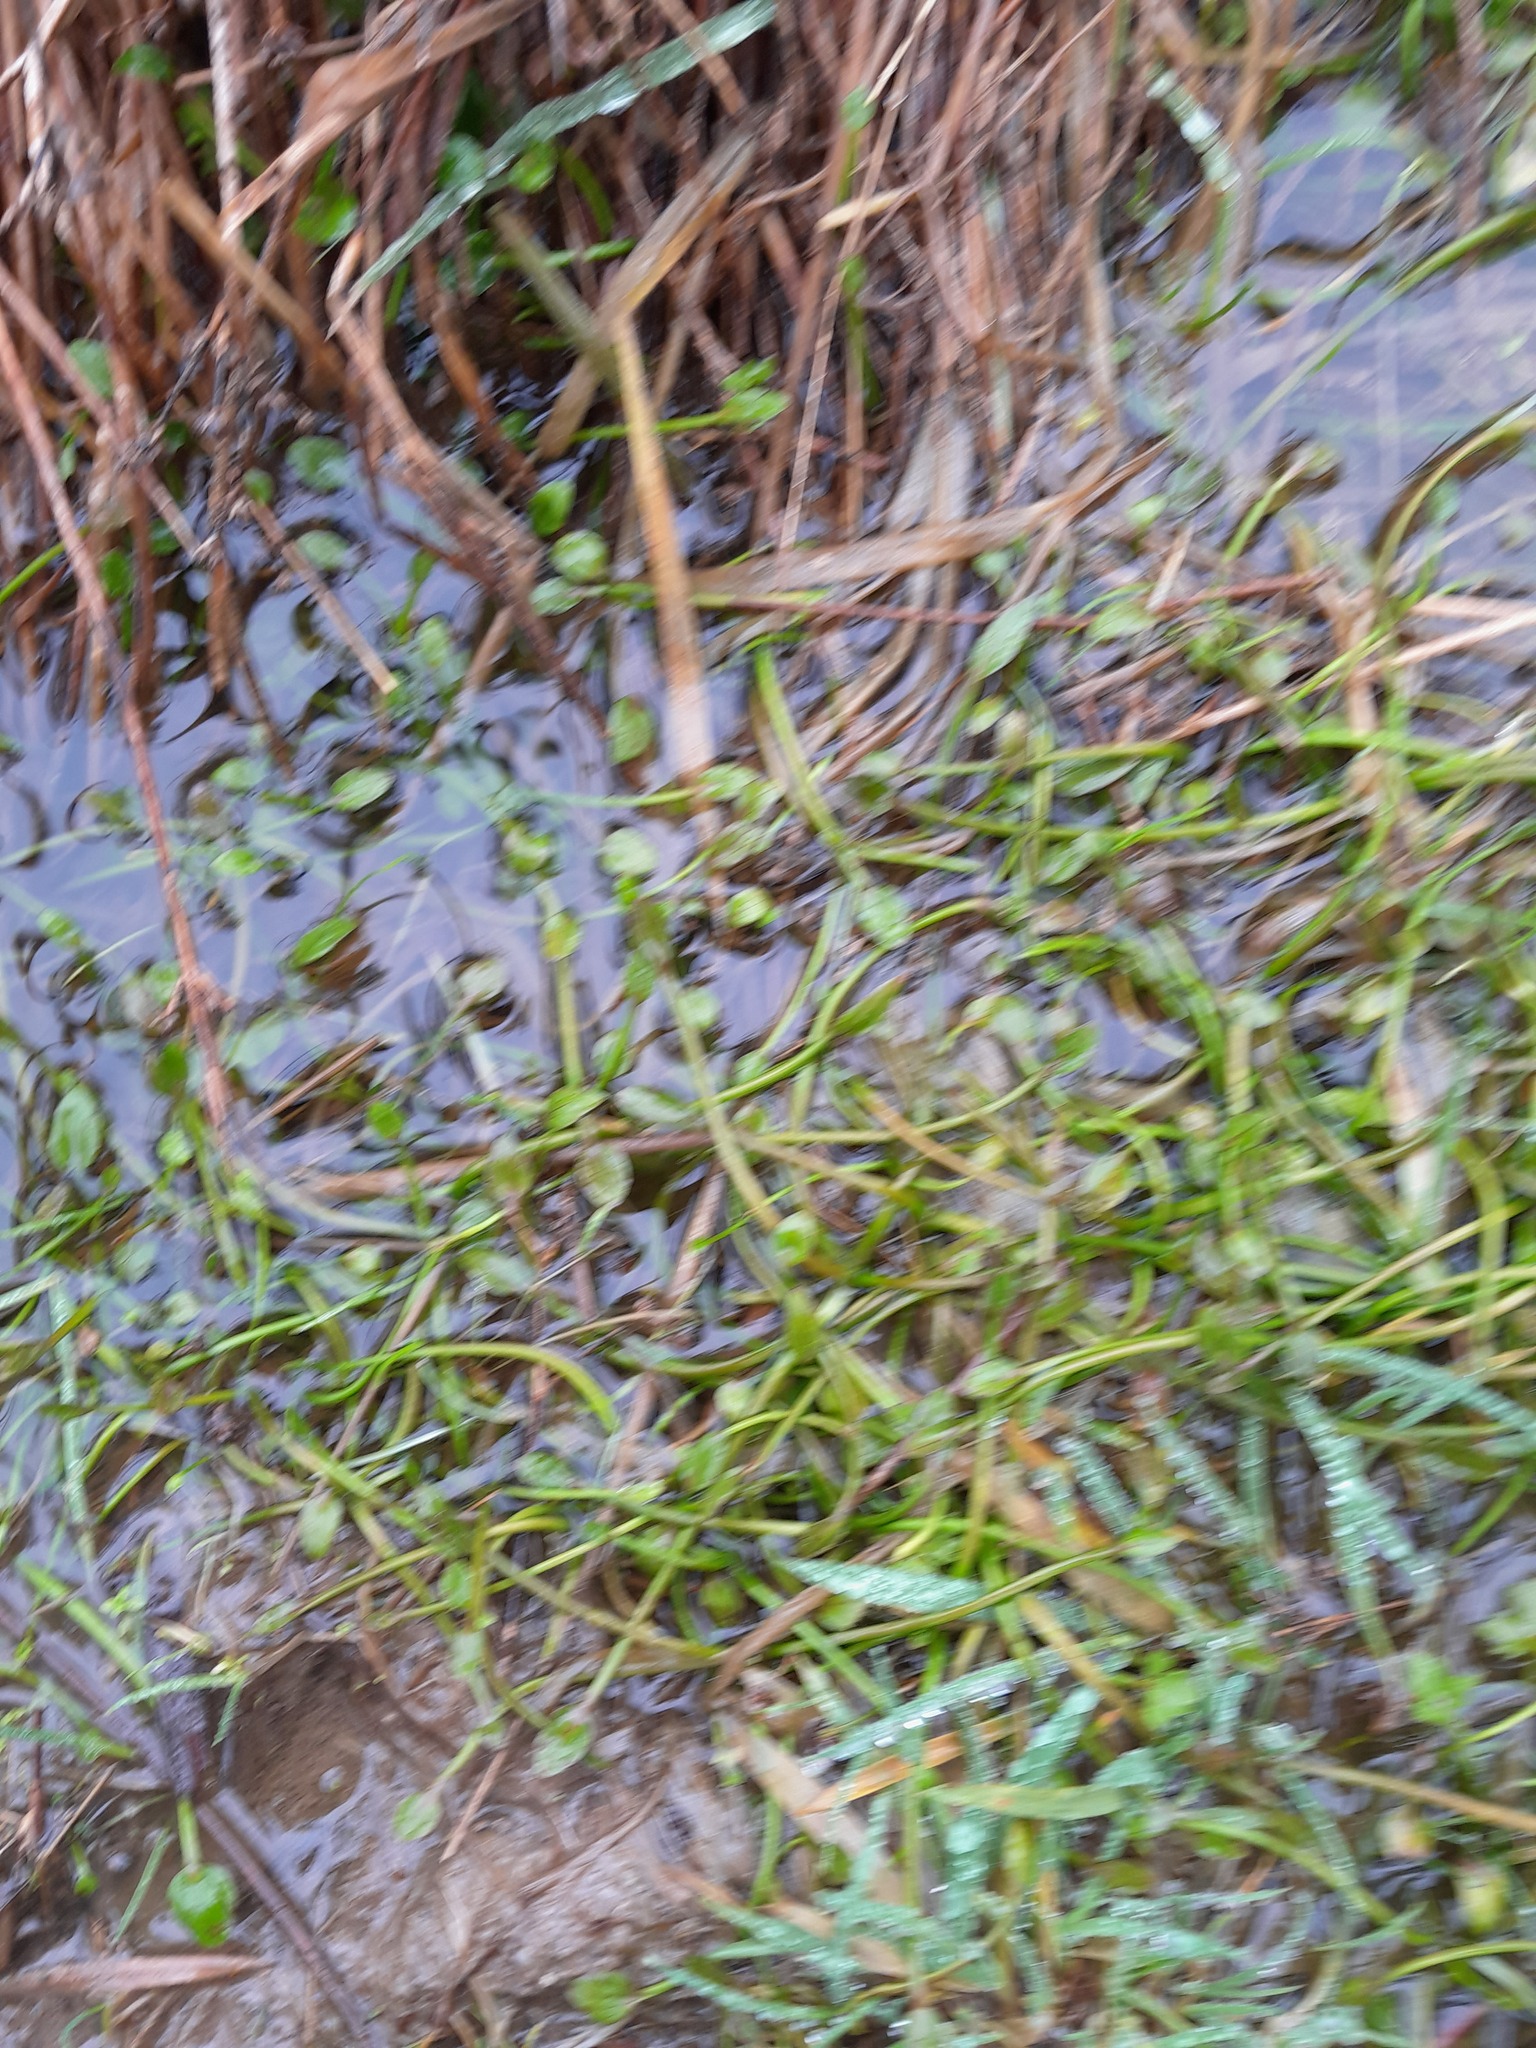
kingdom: Plantae
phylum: Tracheophyta
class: Magnoliopsida
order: Ranunculales
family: Ranunculaceae
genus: Ranunculus
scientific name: Ranunculus flammula
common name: Lesser spearwort
